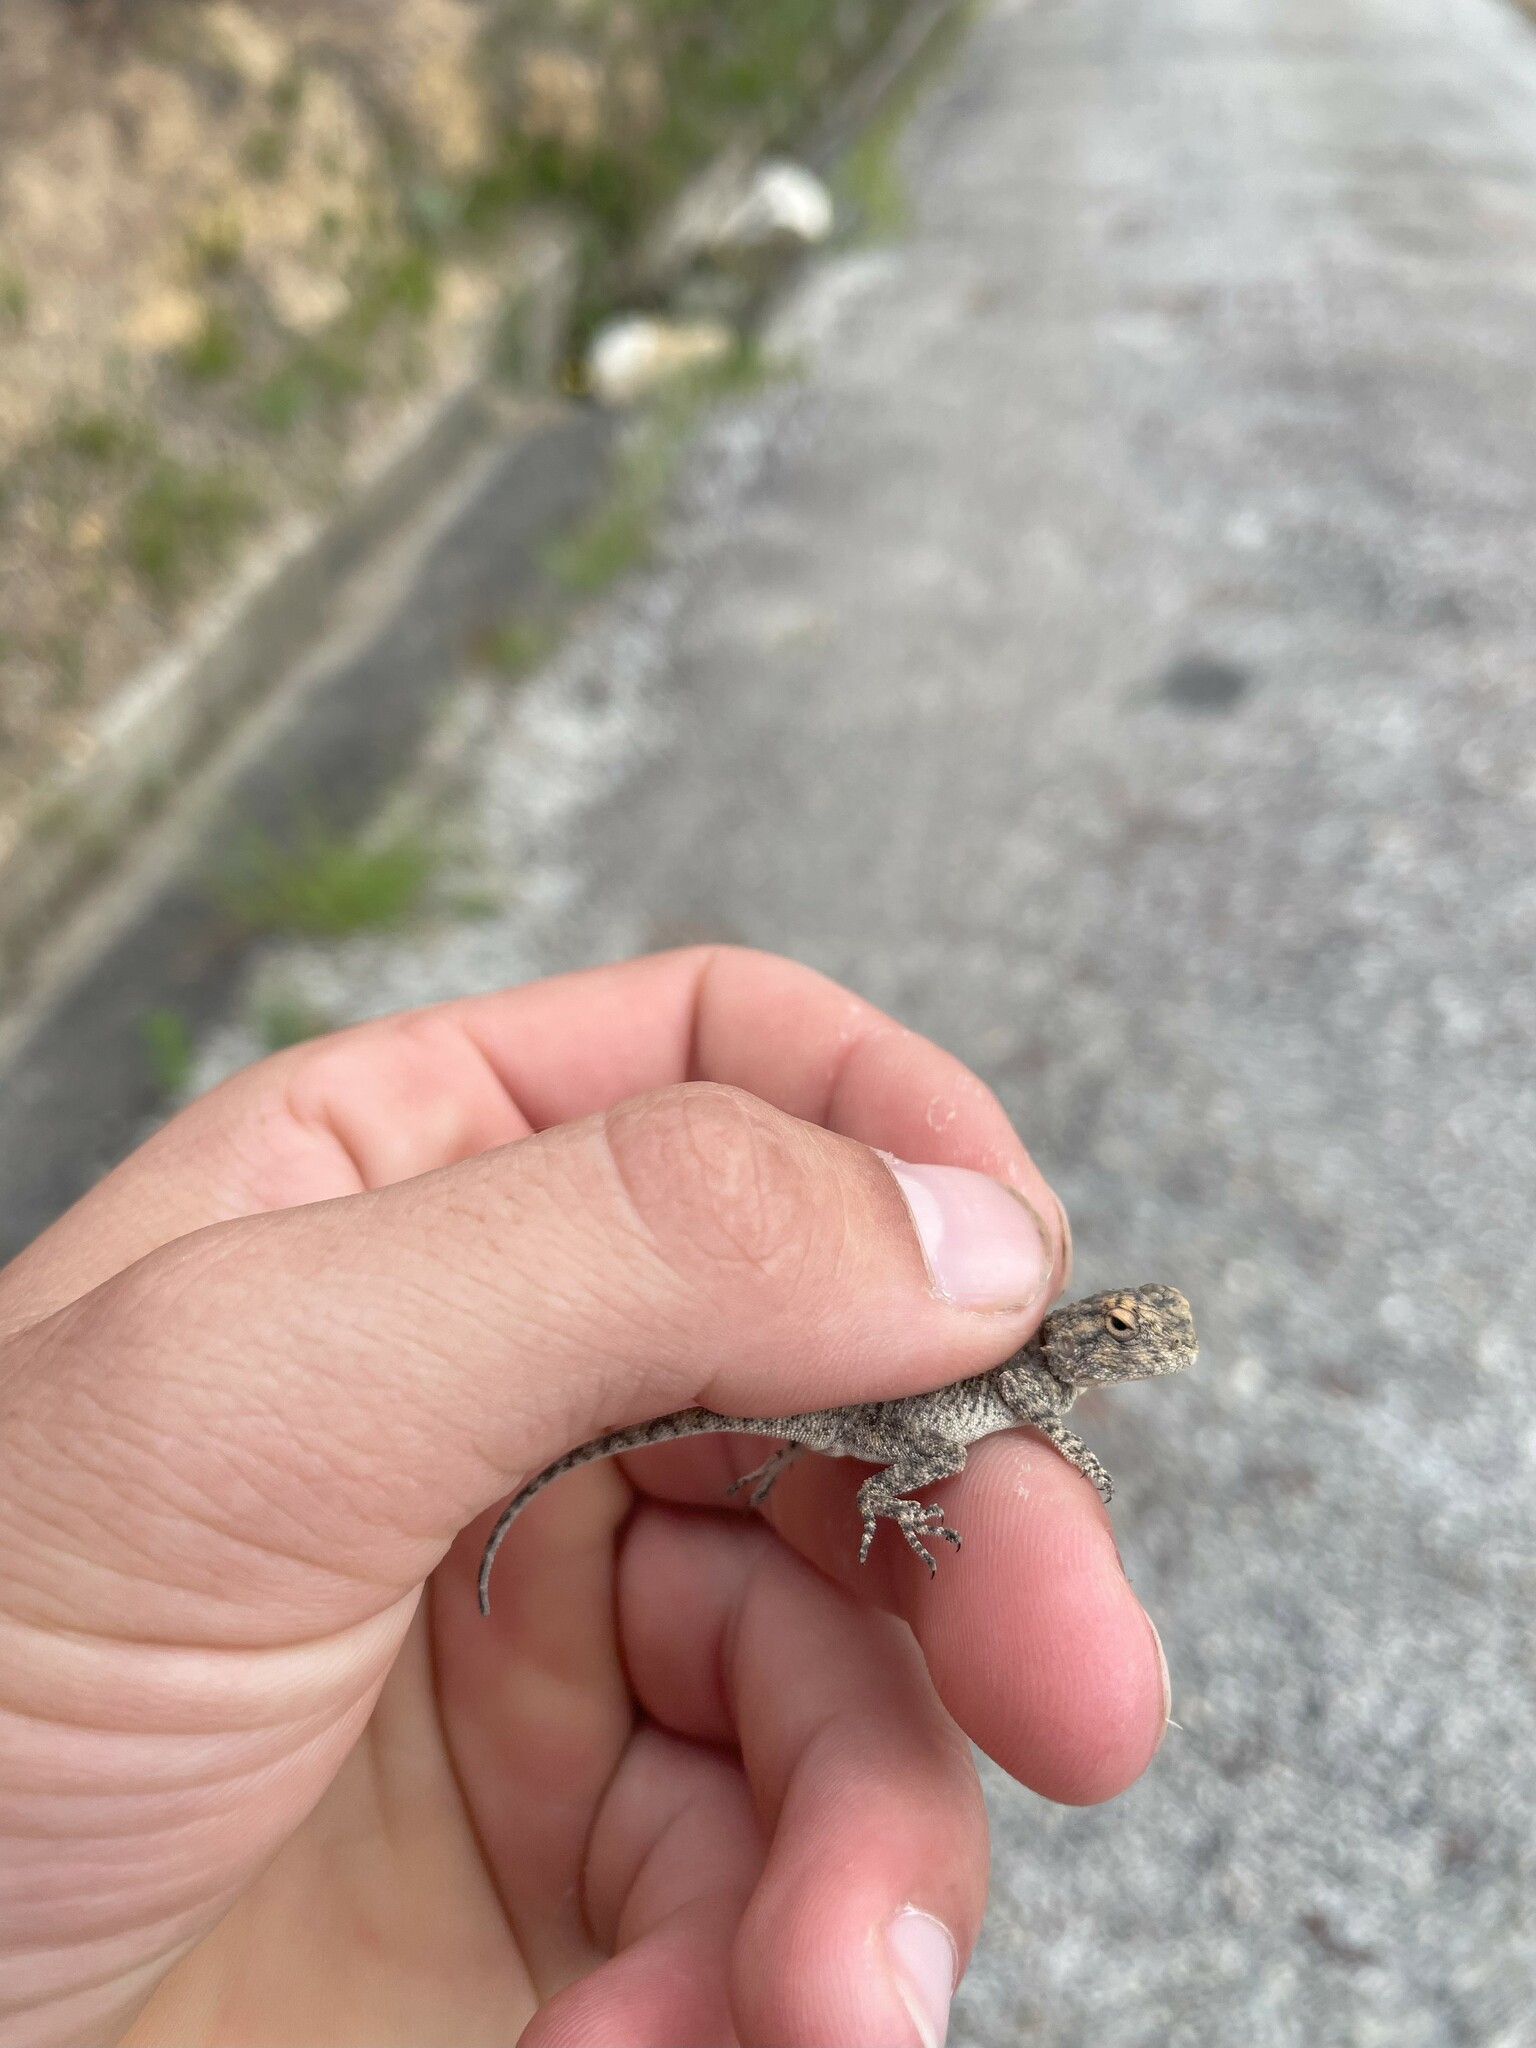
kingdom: Animalia
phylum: Chordata
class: Squamata
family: Agamidae
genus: Agama
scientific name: Agama atra
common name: Southern african rock agama
